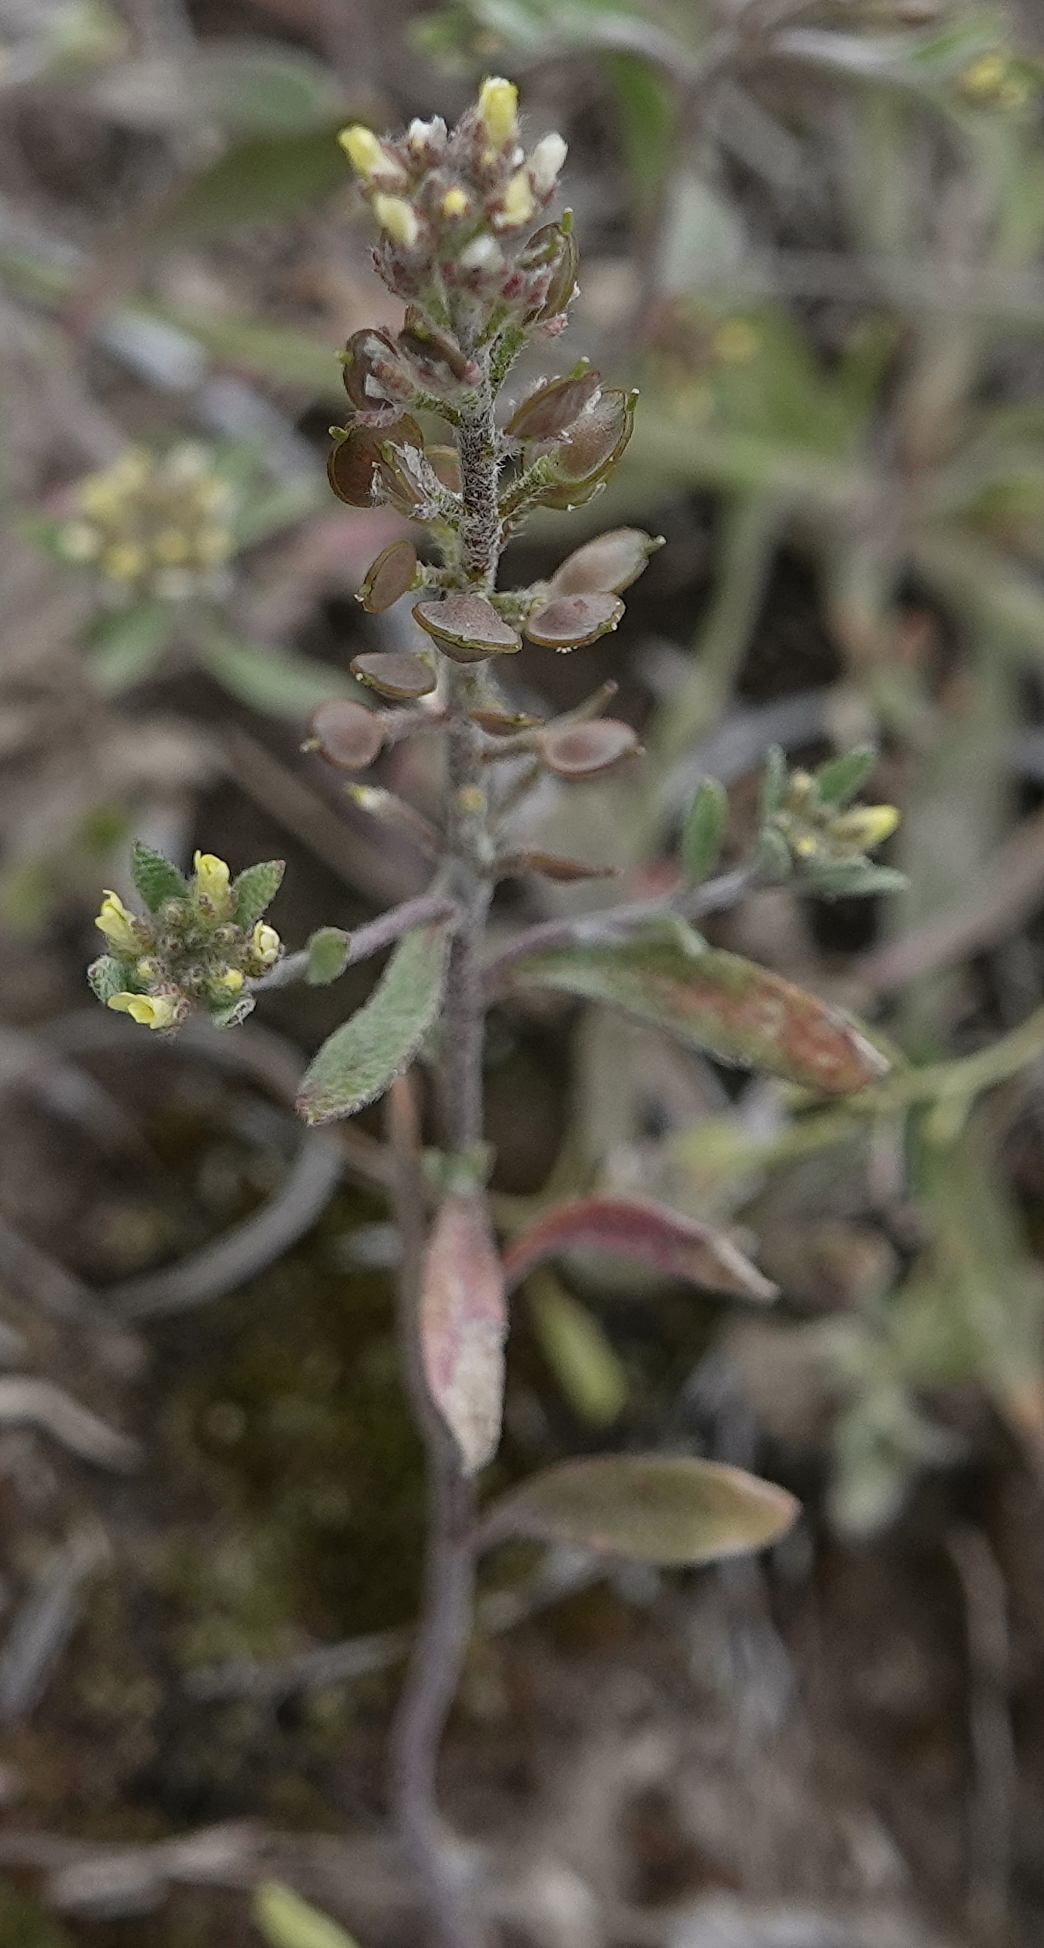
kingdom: Plantae
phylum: Tracheophyta
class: Magnoliopsida
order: Brassicales
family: Brassicaceae
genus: Alyssum
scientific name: Alyssum turkestanicum
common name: Desert alyssum
